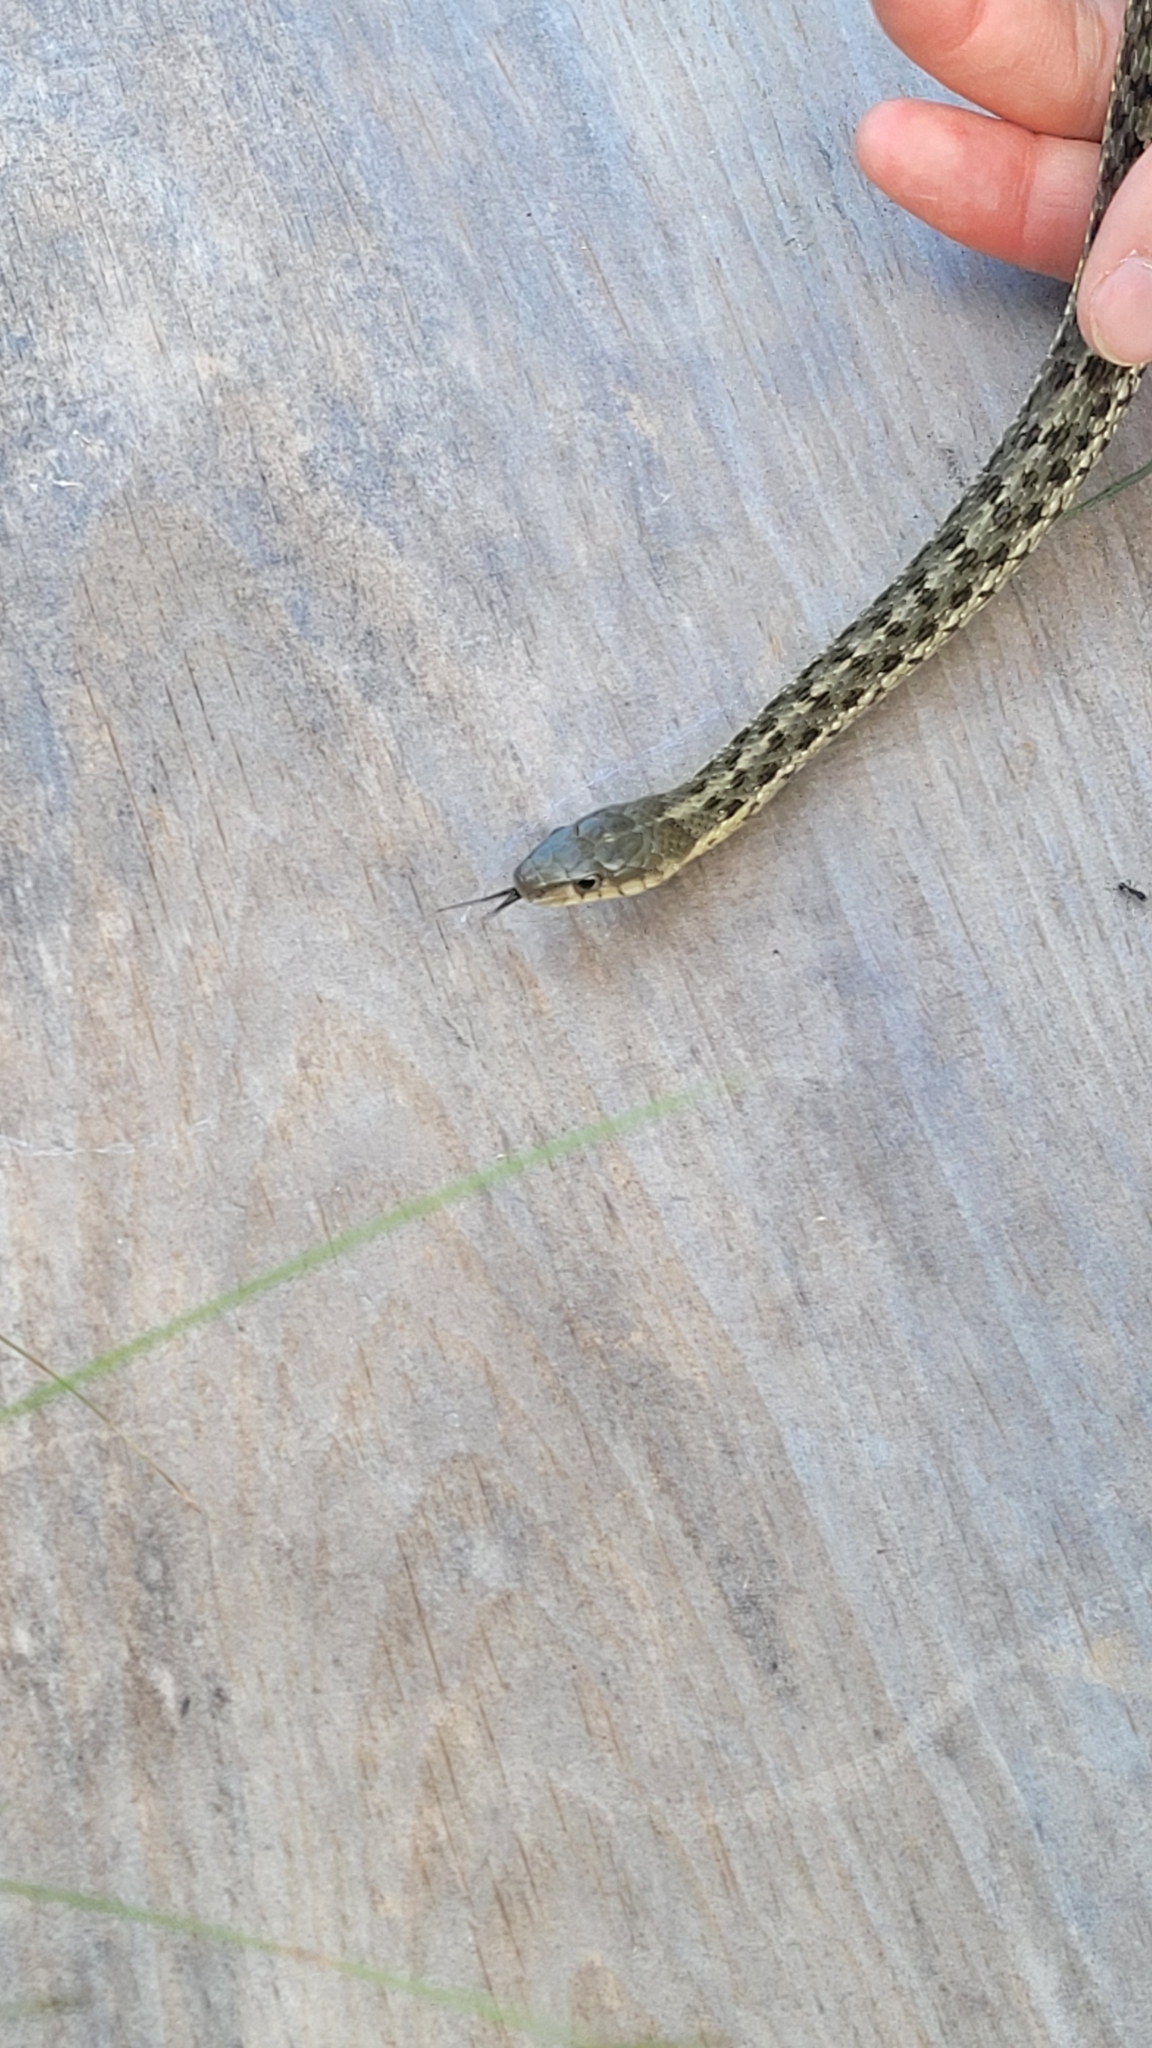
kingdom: Animalia
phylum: Chordata
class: Squamata
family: Colubridae
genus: Thamnophis
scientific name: Thamnophis sirtalis
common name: Common garter snake
